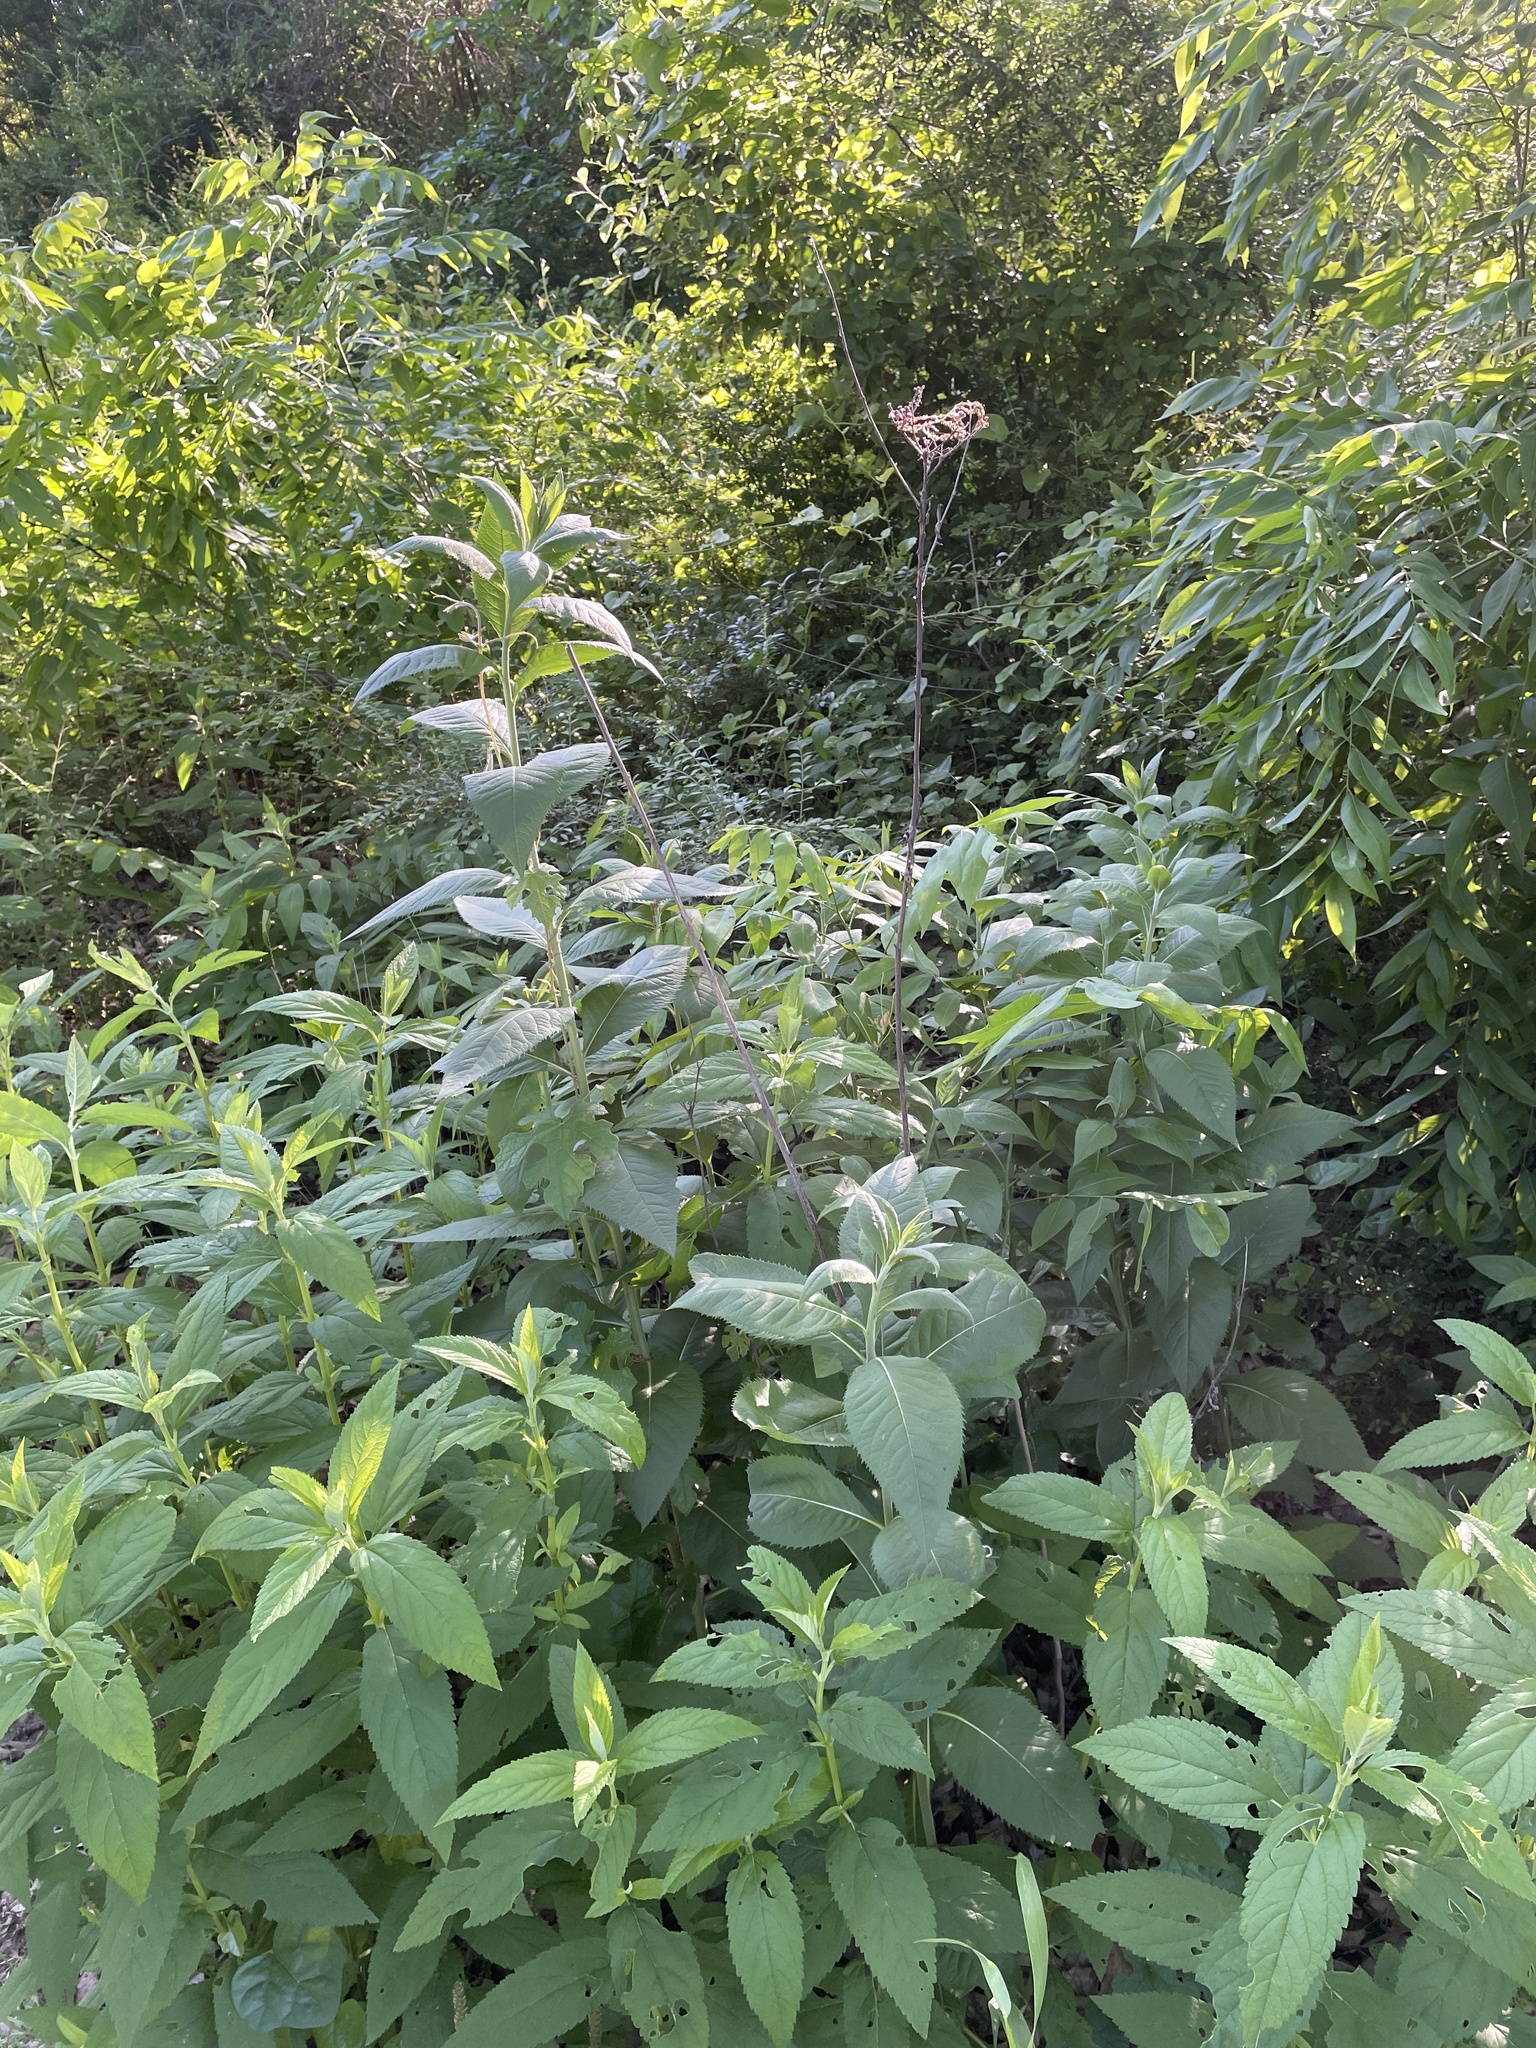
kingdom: Plantae
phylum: Tracheophyta
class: Magnoliopsida
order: Asterales
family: Asteraceae
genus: Vernonia
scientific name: Vernonia baldwinii
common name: Western ironweed
